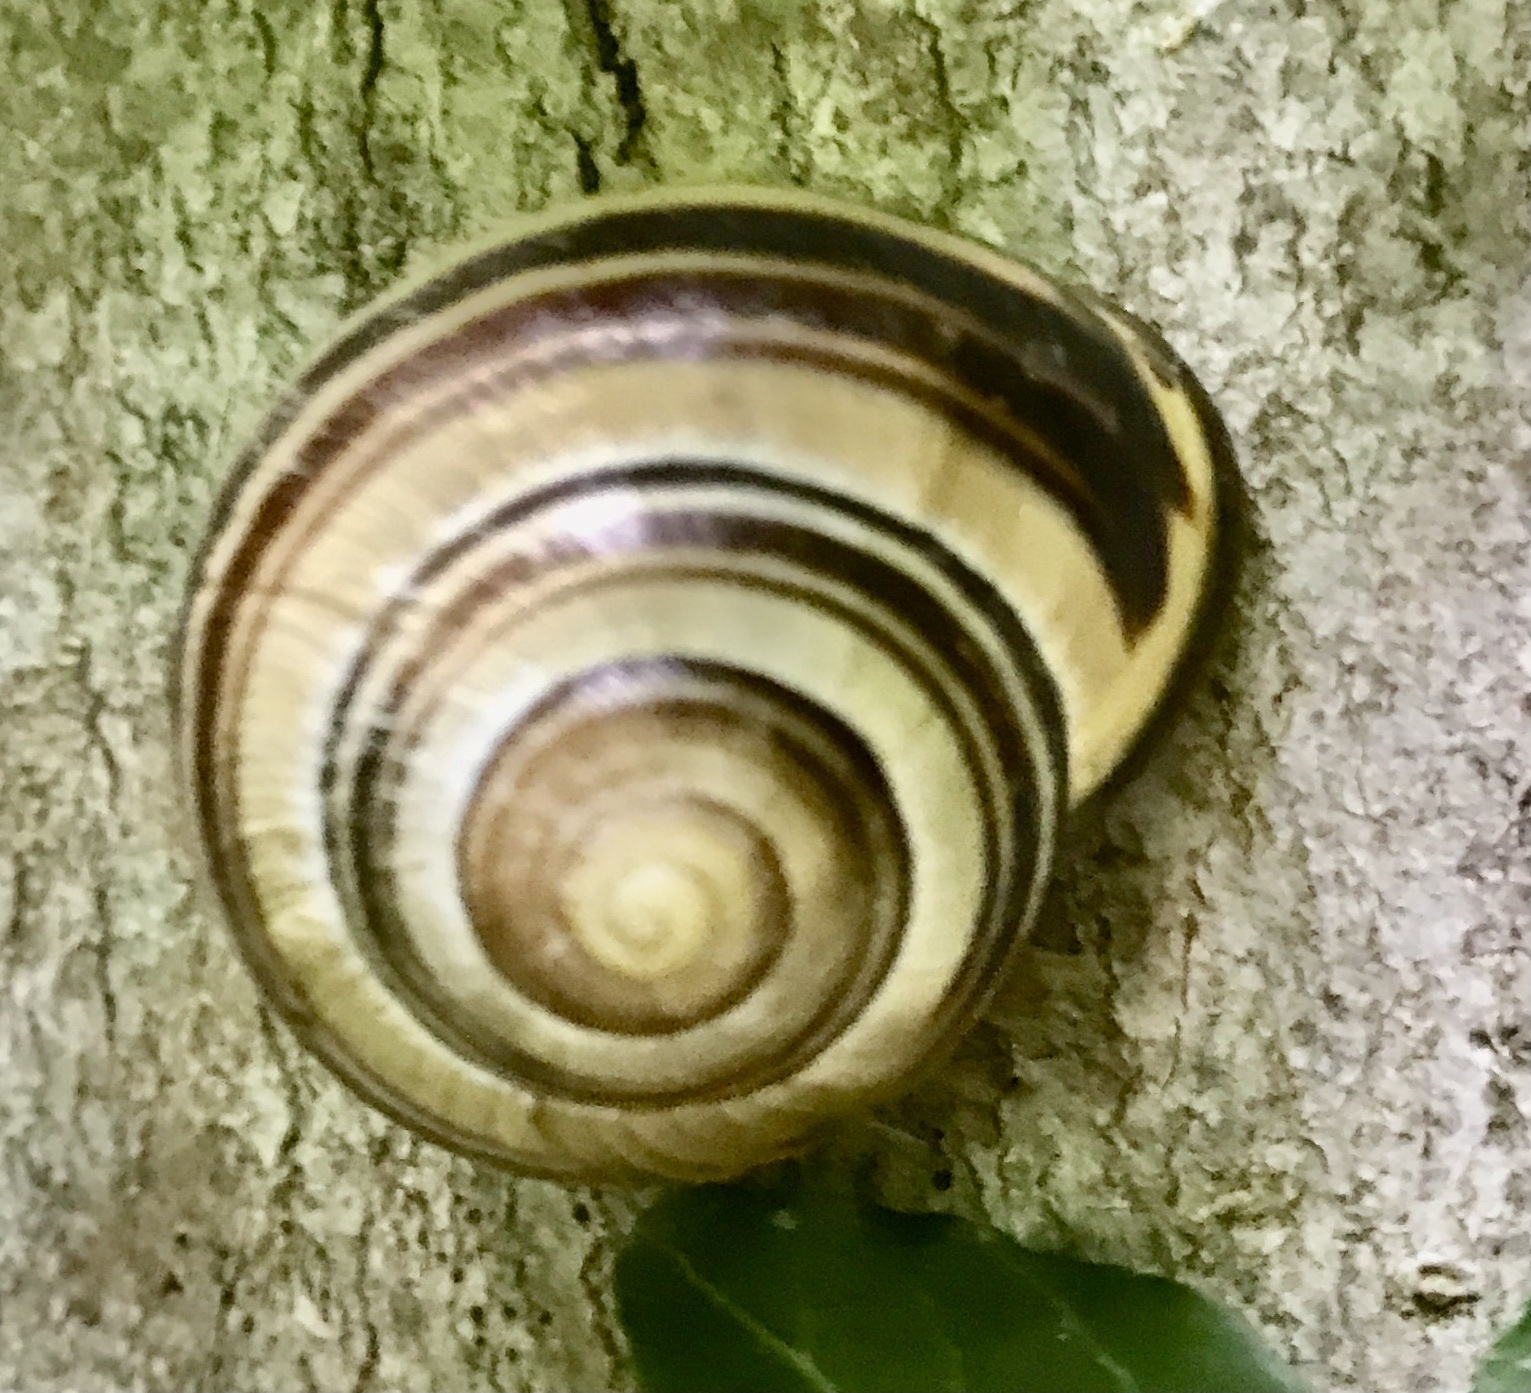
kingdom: Animalia
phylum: Mollusca
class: Gastropoda
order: Stylommatophora
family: Helicidae
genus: Cepaea
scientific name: Cepaea nemoralis
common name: Grovesnail
